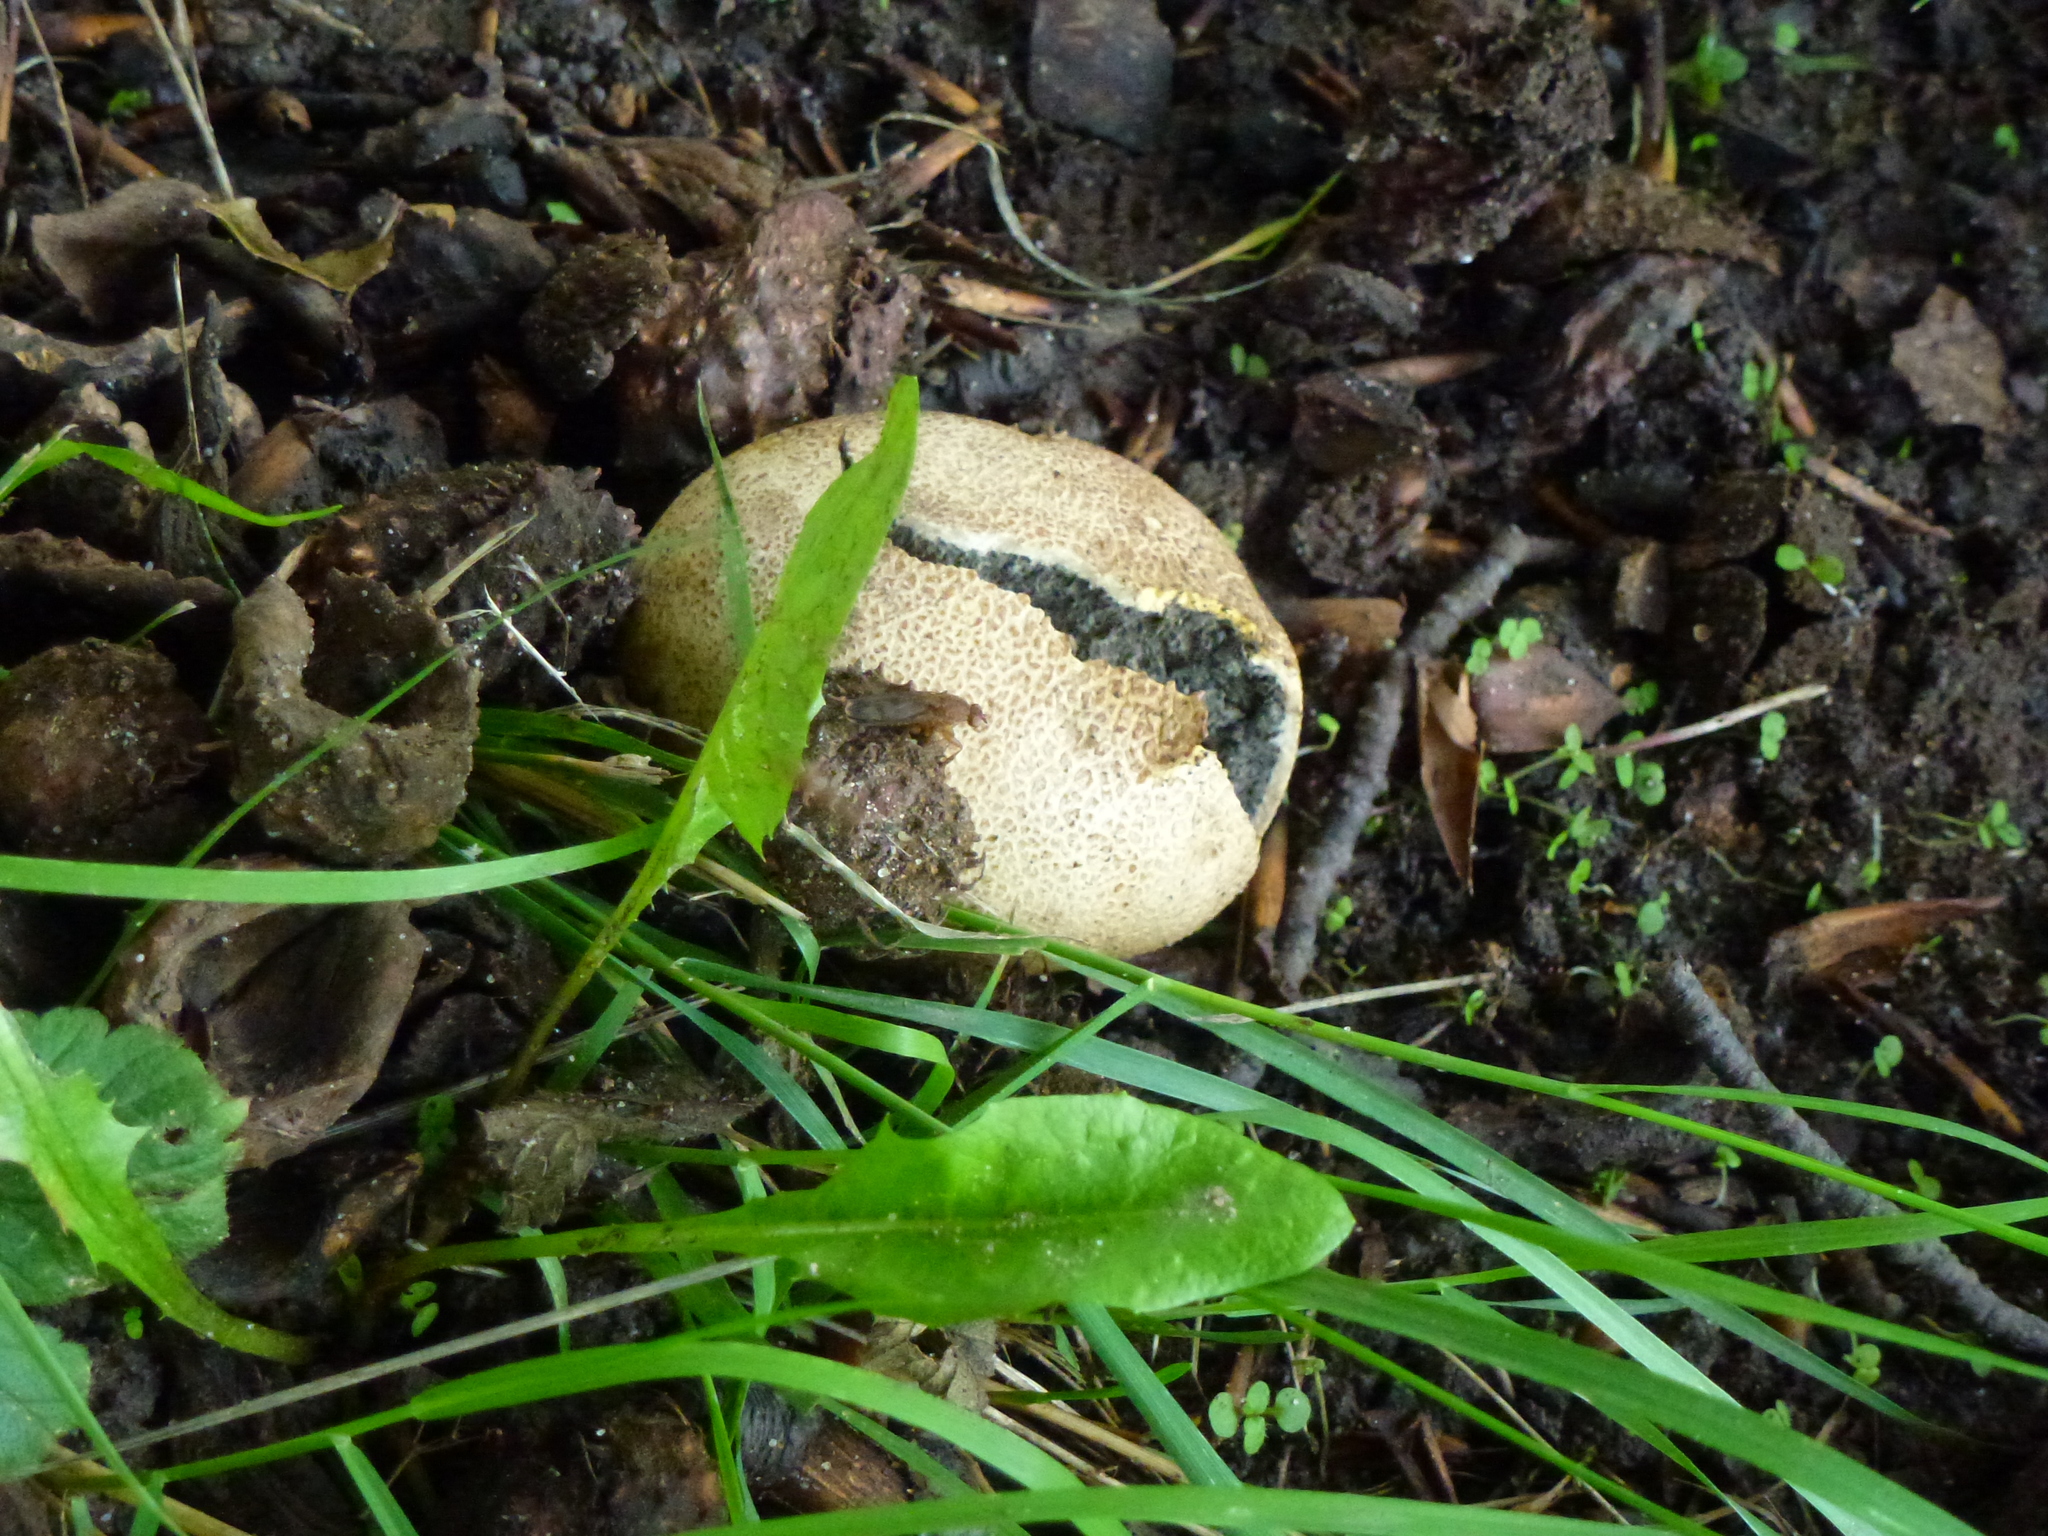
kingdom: Fungi
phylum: Basidiomycota
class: Agaricomycetes
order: Boletales
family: Sclerodermataceae
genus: Scleroderma
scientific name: Scleroderma citrinum
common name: Common earthball
